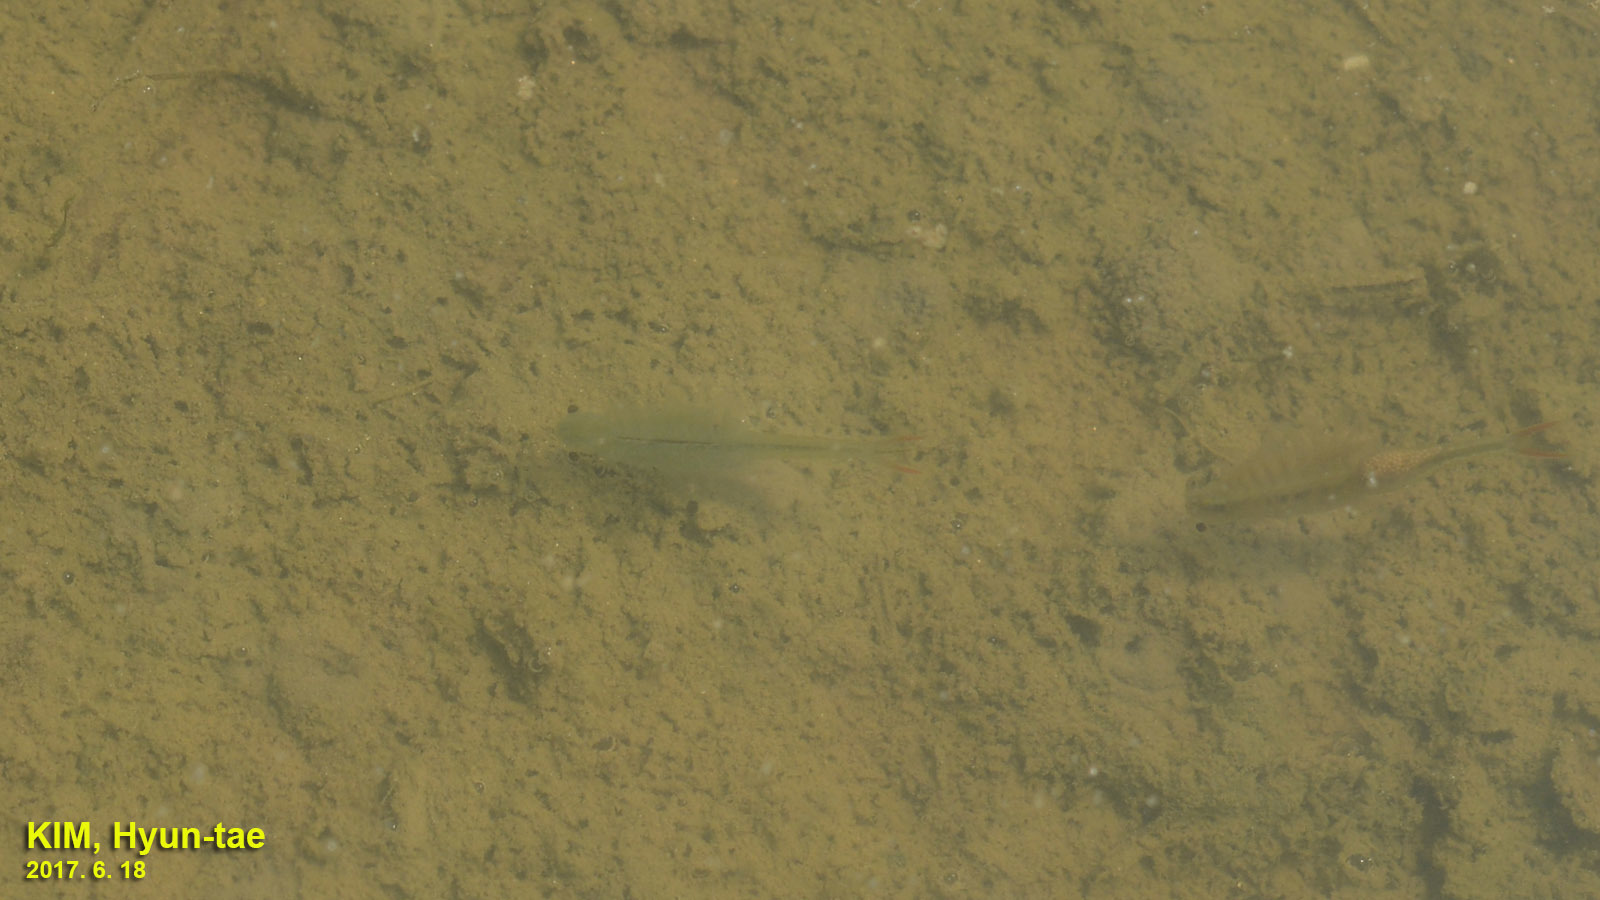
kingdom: Animalia
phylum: Arthropoda
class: Branchiopoda
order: Anostraca
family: Thamnocephalidae
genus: Branchinella
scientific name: Branchinella kugenumaensis
